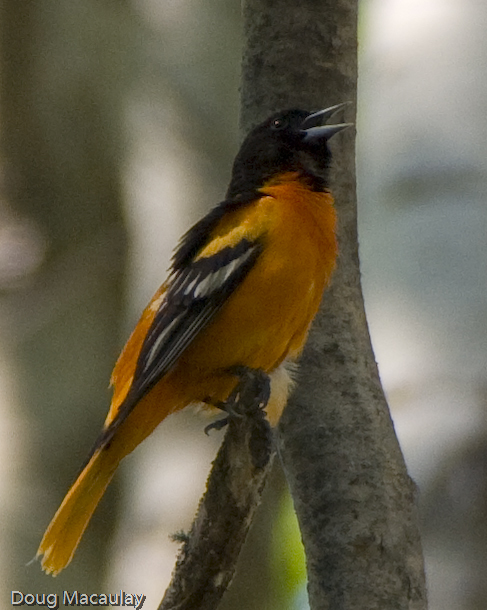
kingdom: Animalia
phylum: Chordata
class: Aves
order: Passeriformes
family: Icteridae
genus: Icterus
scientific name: Icterus galbula
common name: Baltimore oriole
